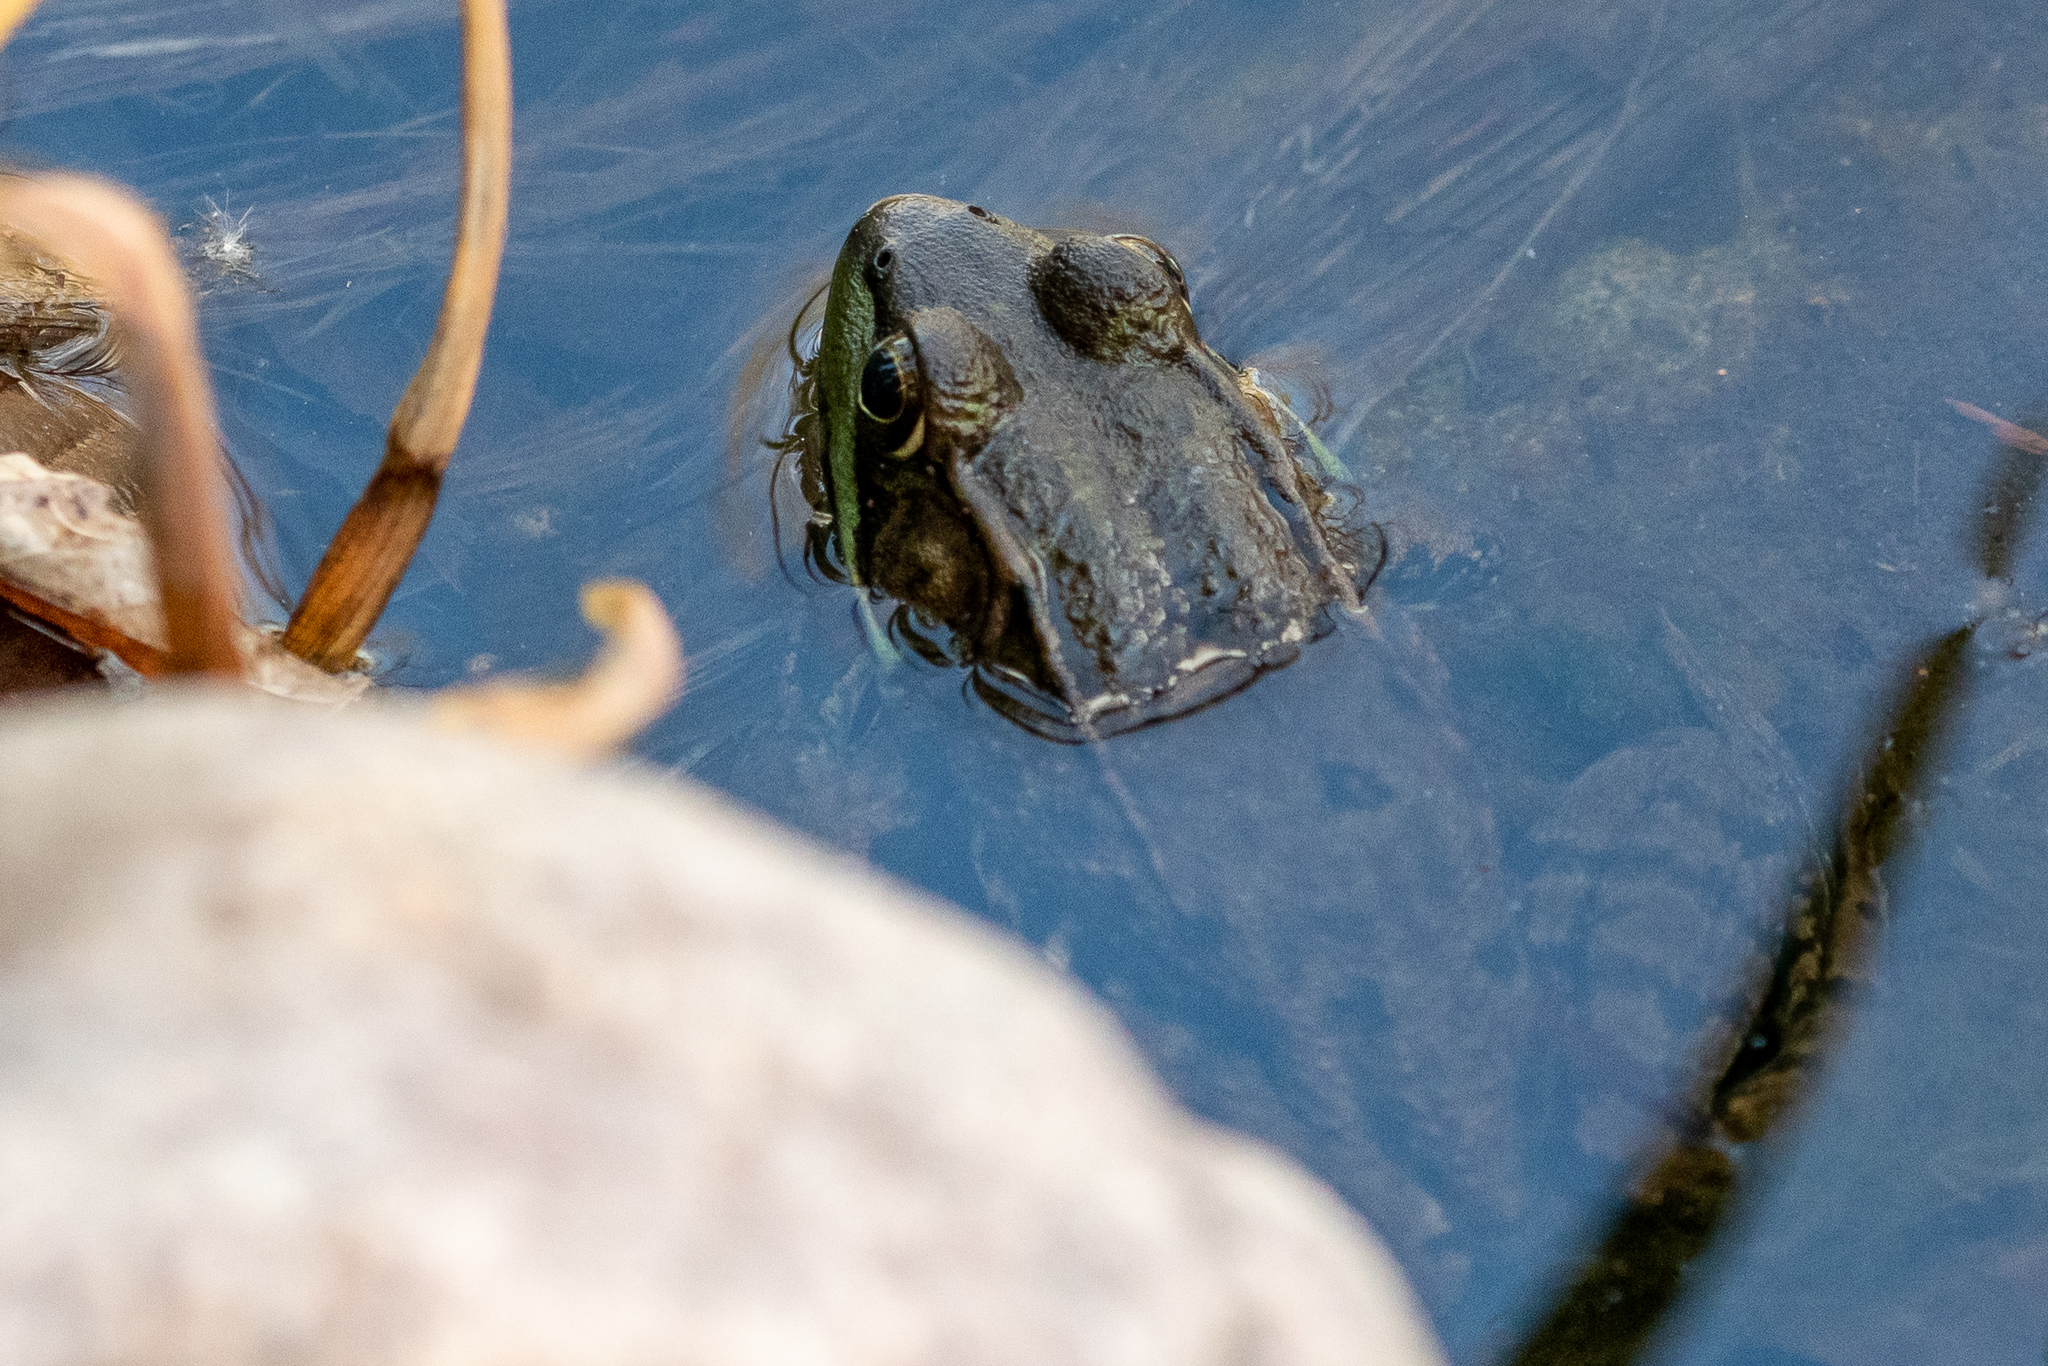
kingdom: Animalia
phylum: Chordata
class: Amphibia
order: Anura
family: Ranidae
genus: Lithobates
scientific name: Lithobates clamitans
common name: Green frog
